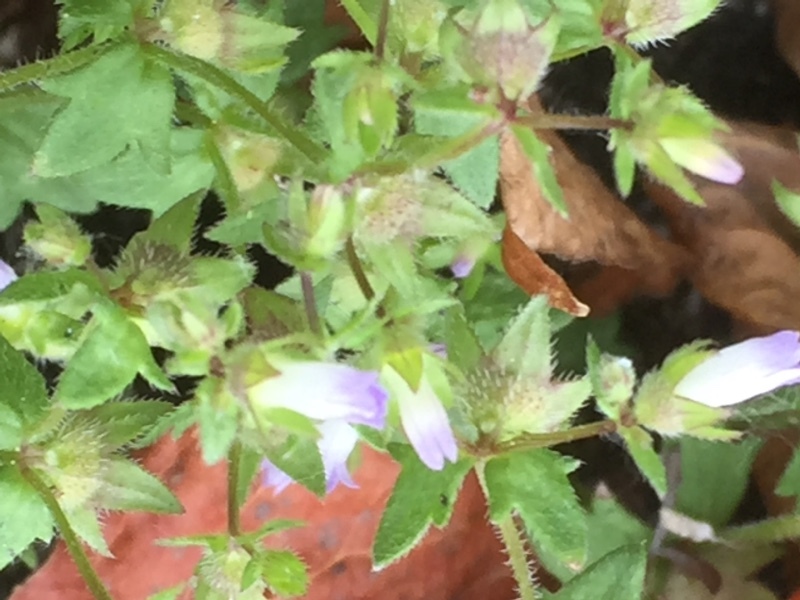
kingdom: Plantae
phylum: Tracheophyta
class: Magnoliopsida
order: Asterales
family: Campanulaceae
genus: Campanula
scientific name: Campanula erinus
